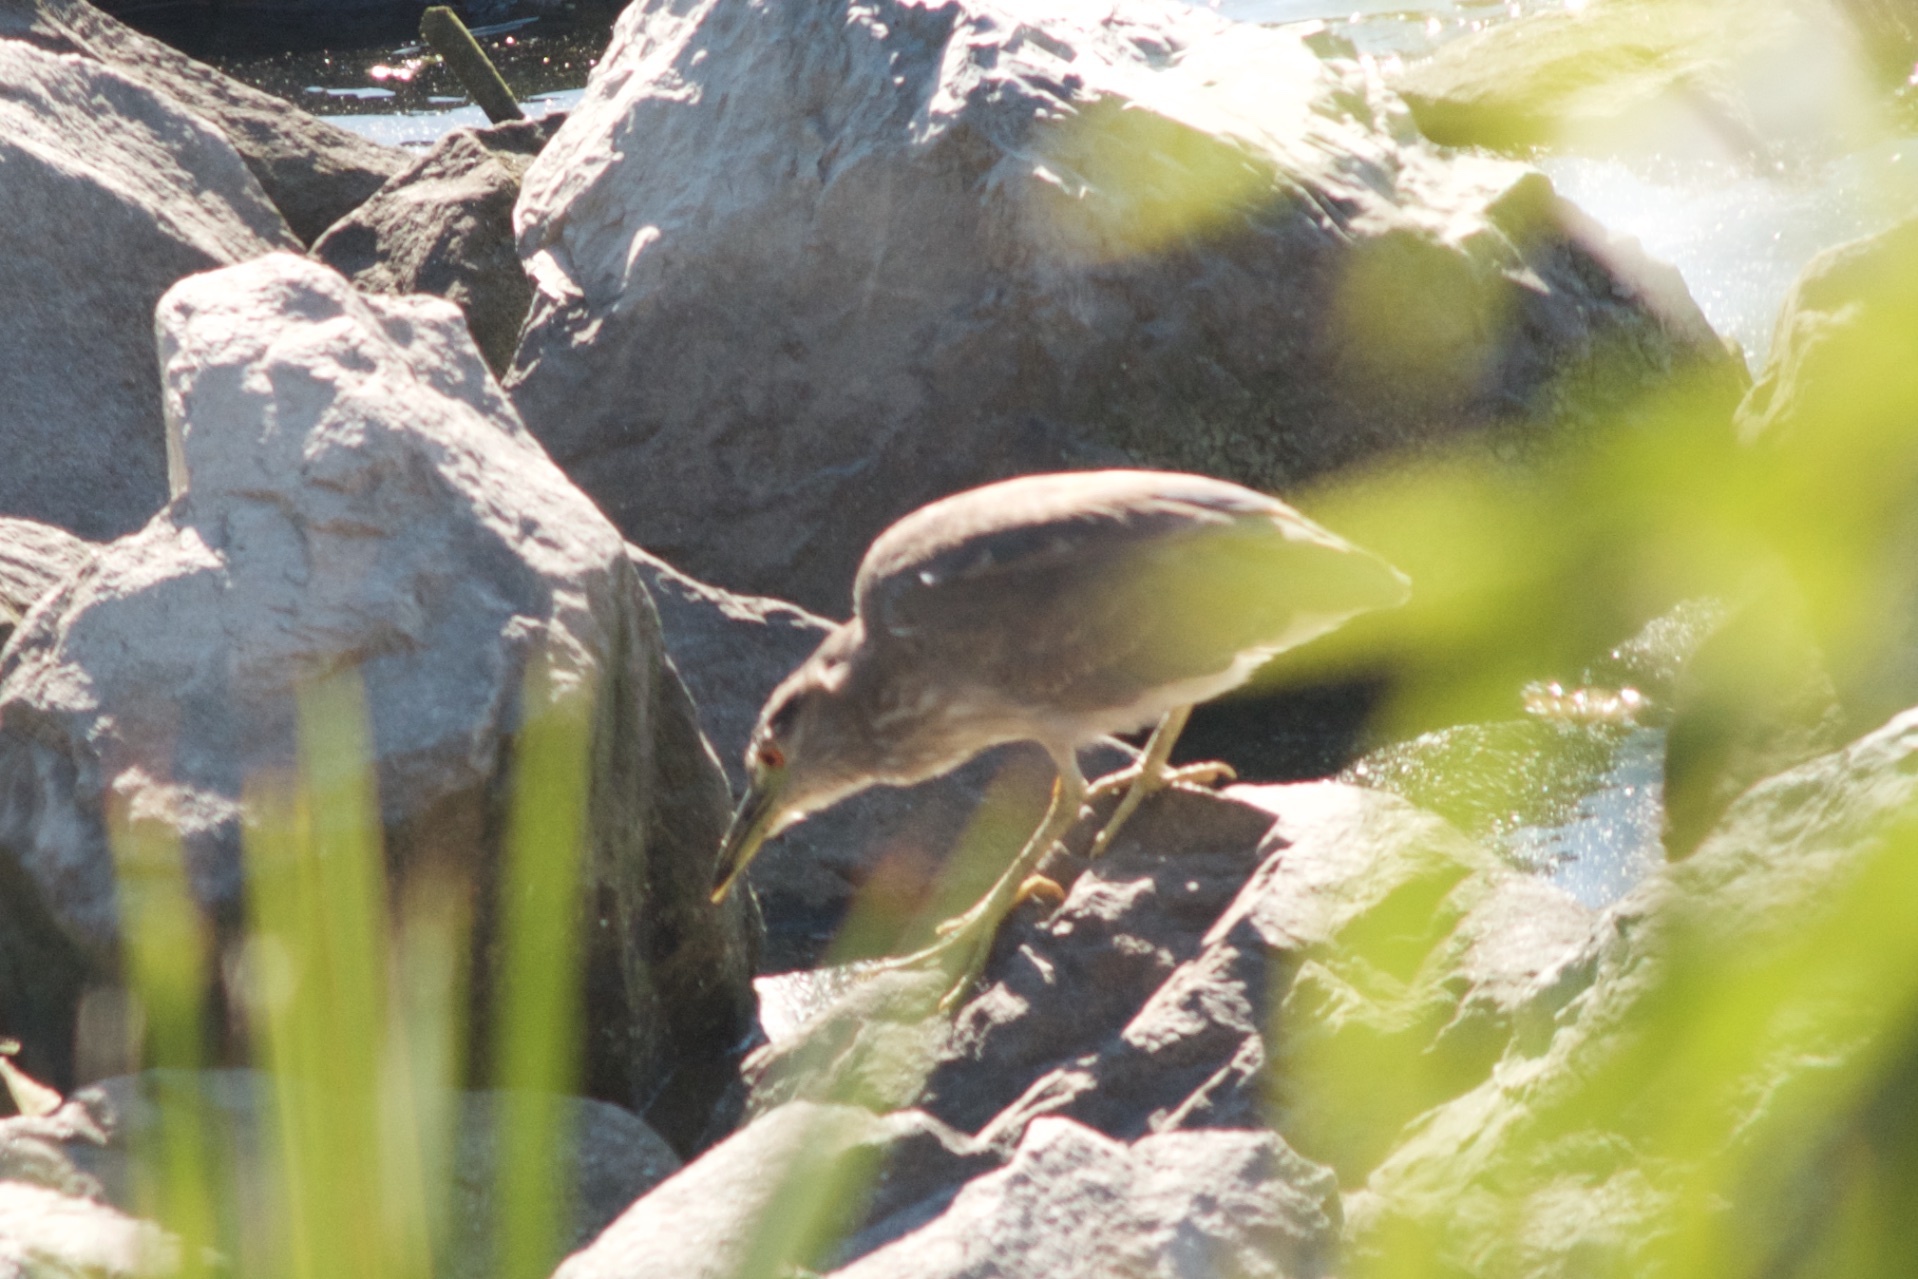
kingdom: Animalia
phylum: Chordata
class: Aves
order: Pelecaniformes
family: Ardeidae
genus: Nycticorax
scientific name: Nycticorax nycticorax
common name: Black-crowned night heron
